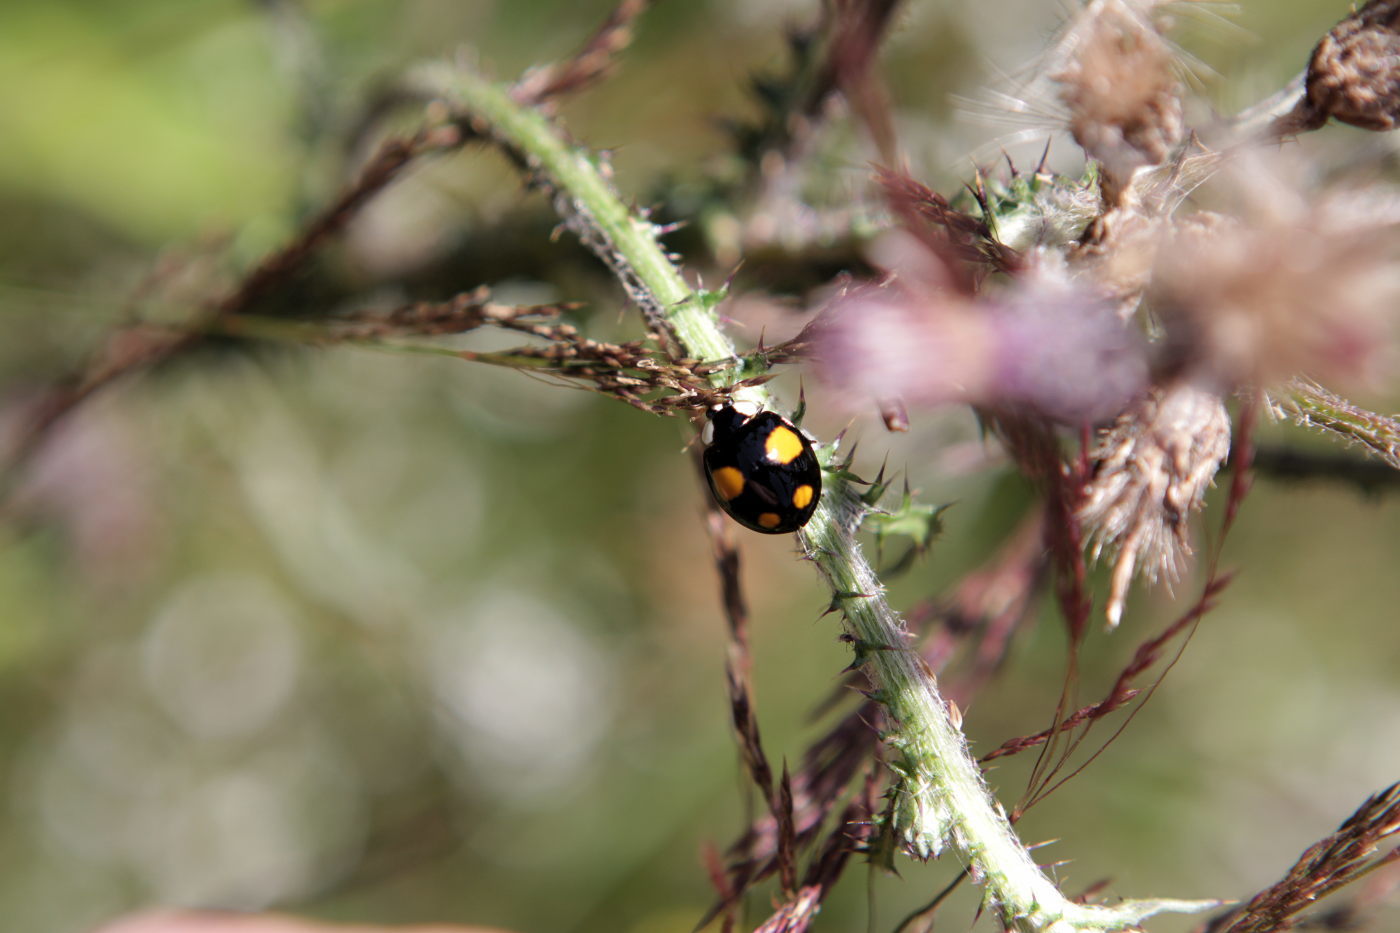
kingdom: Animalia
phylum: Arthropoda
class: Insecta
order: Coleoptera
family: Coccinellidae
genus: Harmonia
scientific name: Harmonia axyridis
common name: Harlequin ladybird
